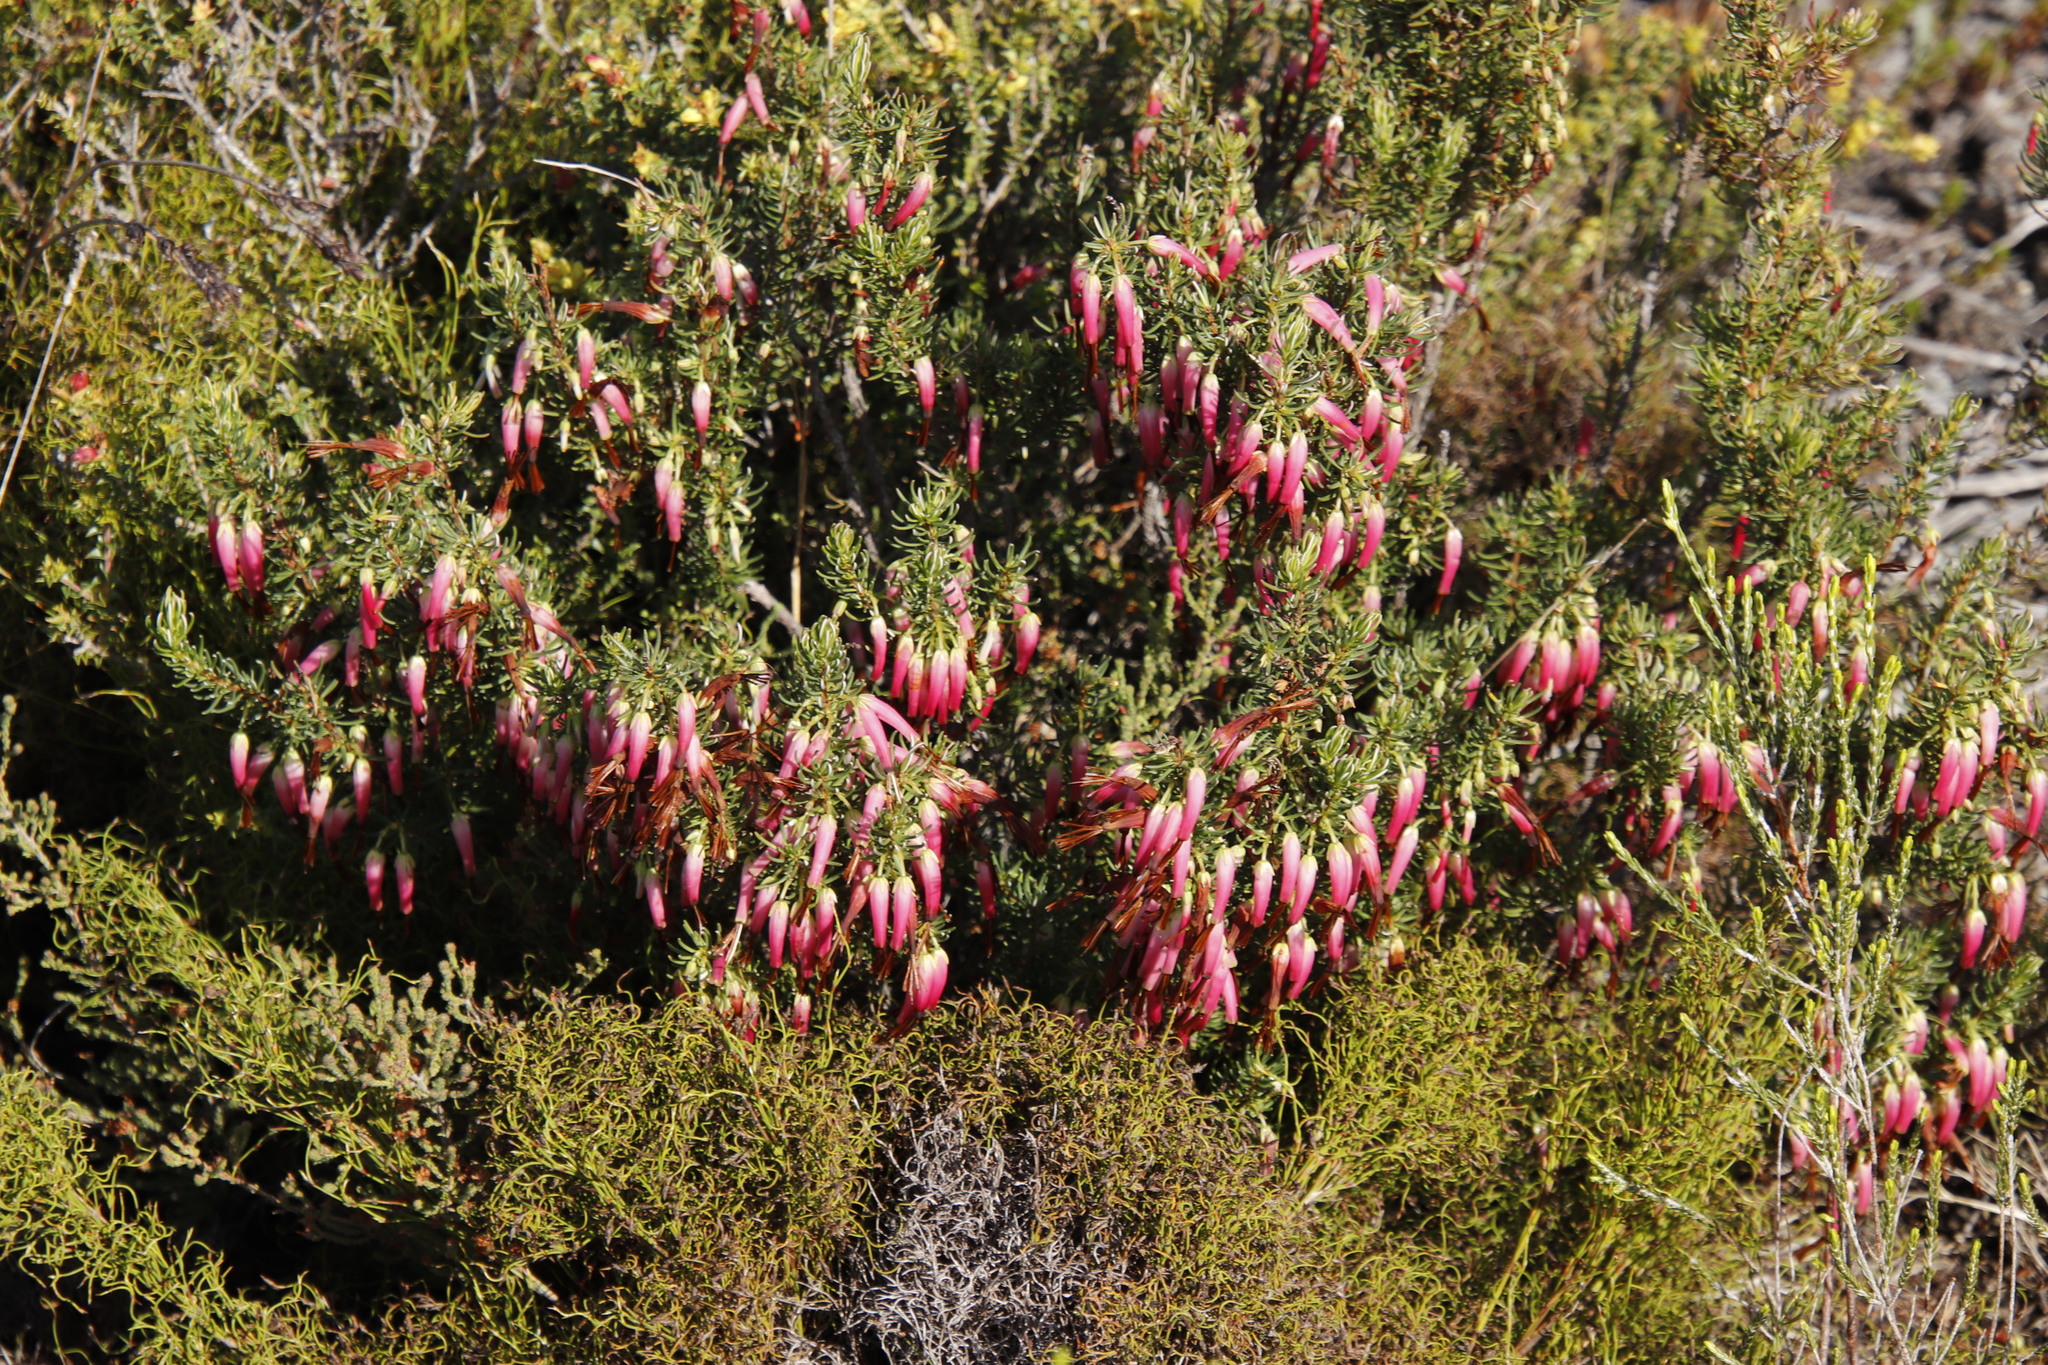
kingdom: Plantae
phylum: Tracheophyta
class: Magnoliopsida
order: Ericales
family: Ericaceae
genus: Erica
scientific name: Erica plukenetii
